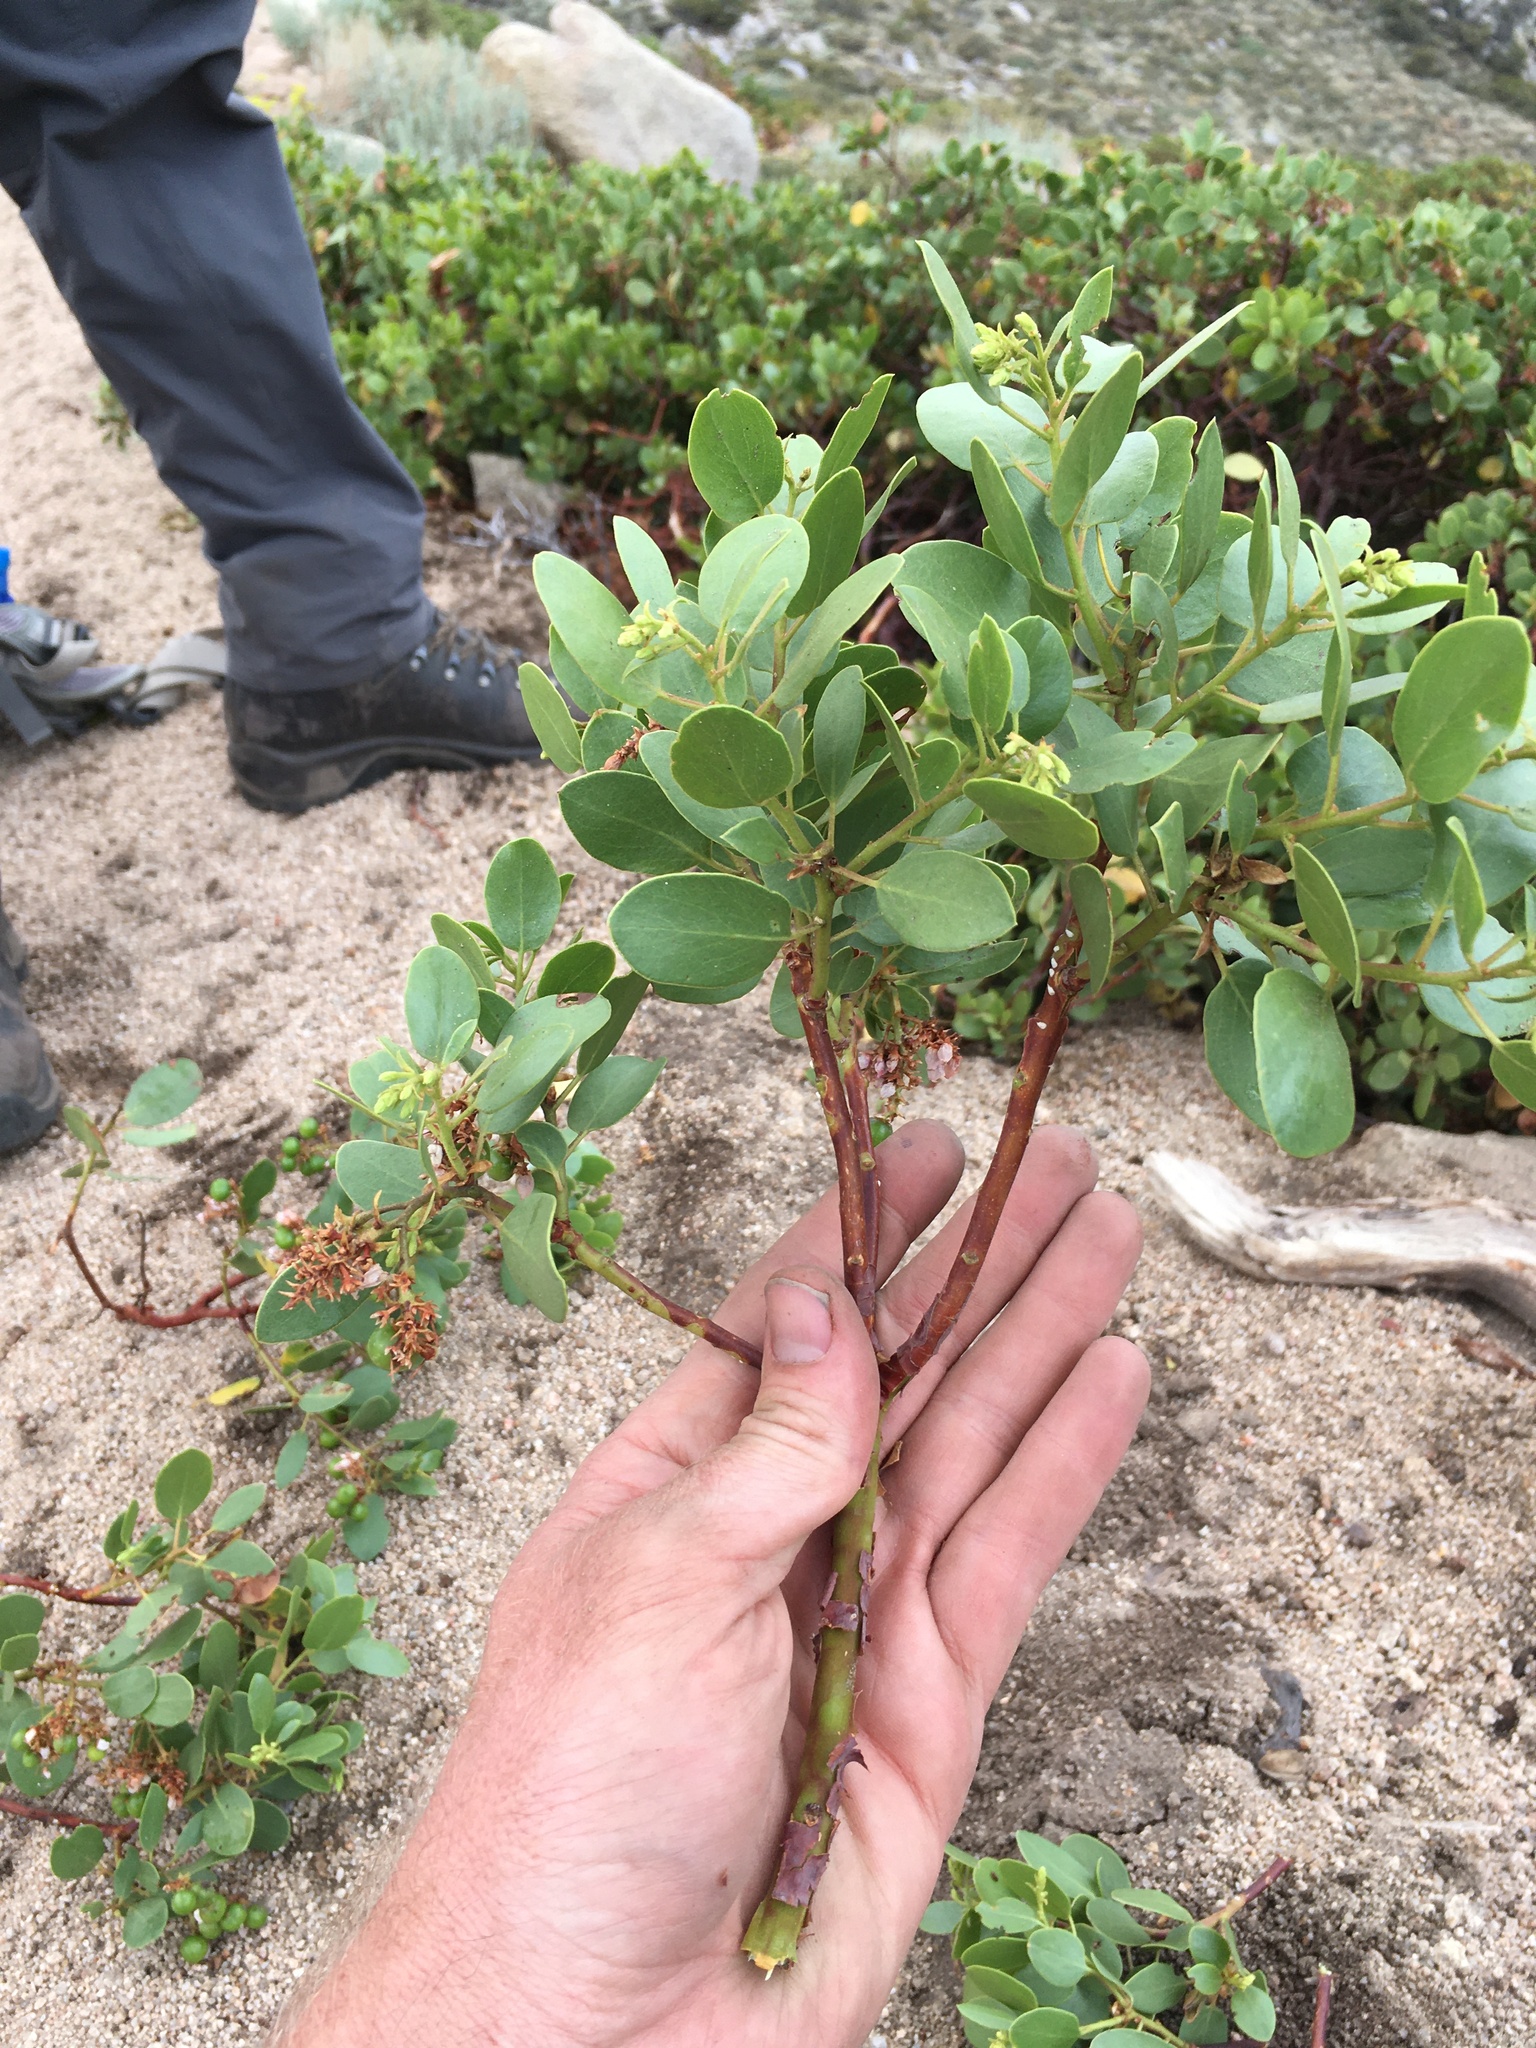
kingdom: Plantae
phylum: Tracheophyta
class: Magnoliopsida
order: Ericales
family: Ericaceae
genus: Arctostaphylos
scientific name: Arctostaphylos patula
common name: Green-leaf manzanita
